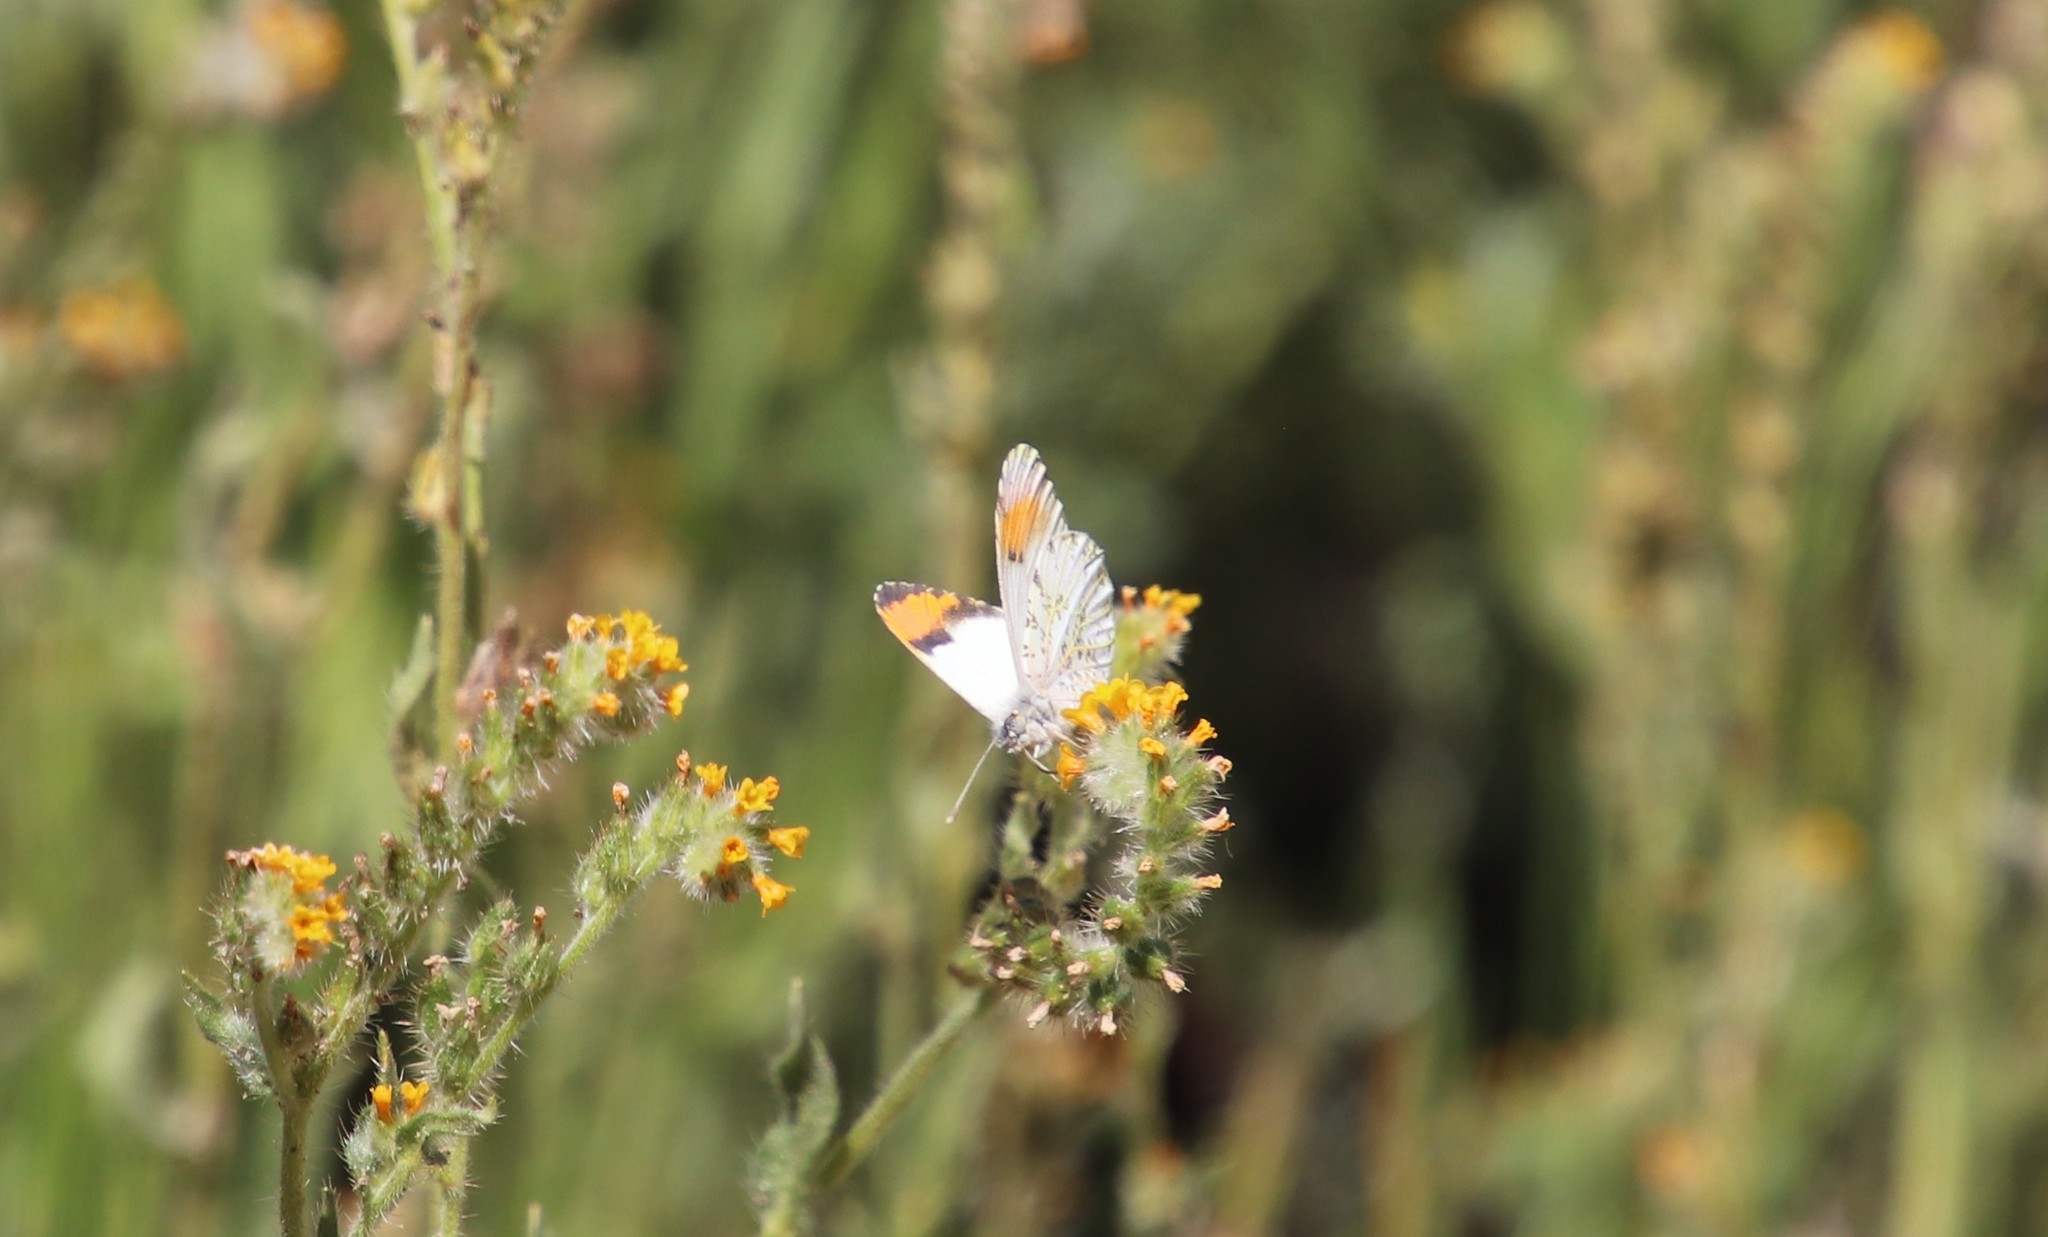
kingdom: Animalia
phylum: Arthropoda
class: Insecta
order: Lepidoptera
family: Pieridae
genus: Anthocharis
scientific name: Anthocharis sara
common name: Sara's orangetip
